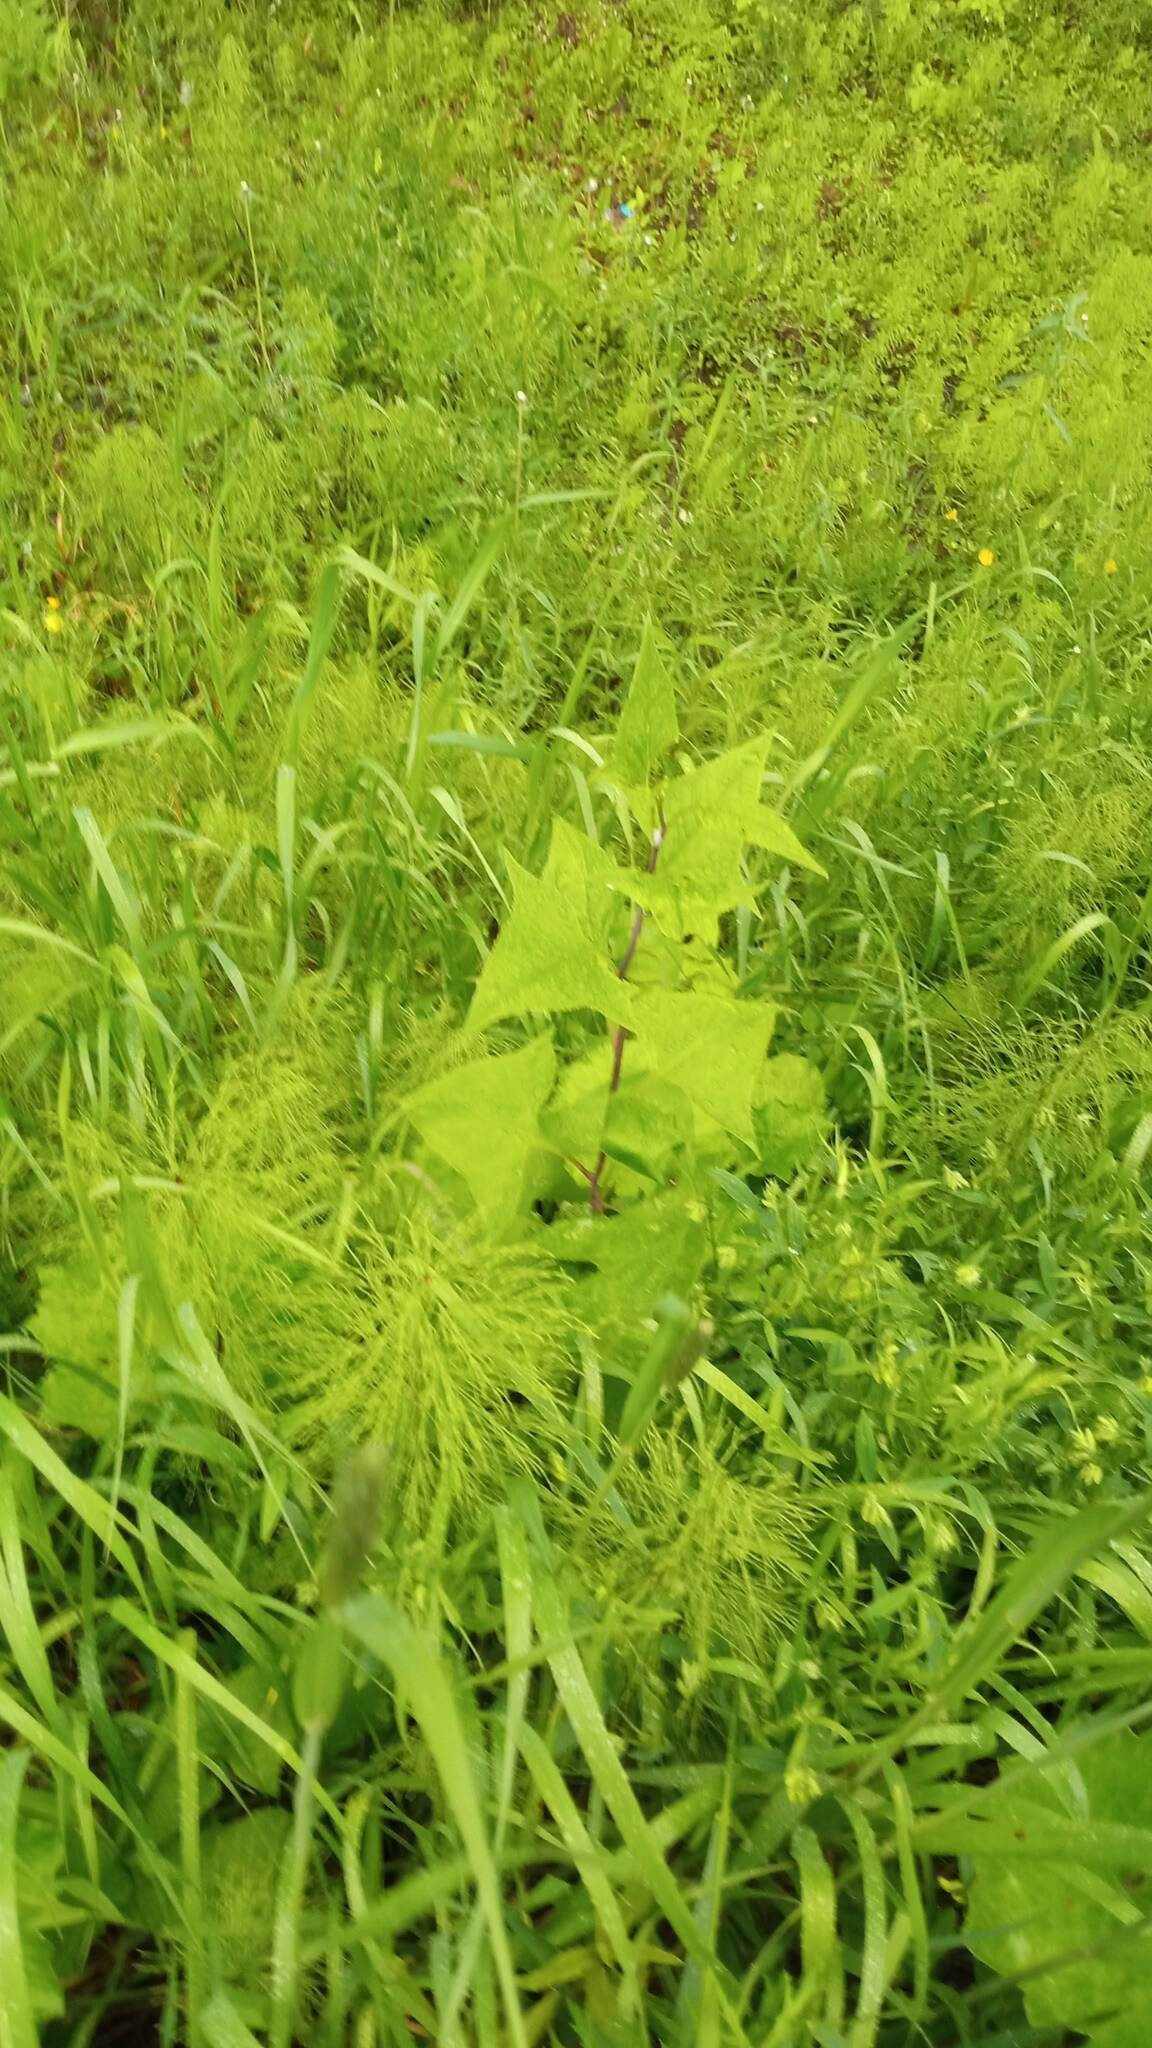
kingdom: Plantae
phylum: Tracheophyta
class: Magnoliopsida
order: Asterales
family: Asteraceae
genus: Parasenecio
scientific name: Parasenecio hastatus
